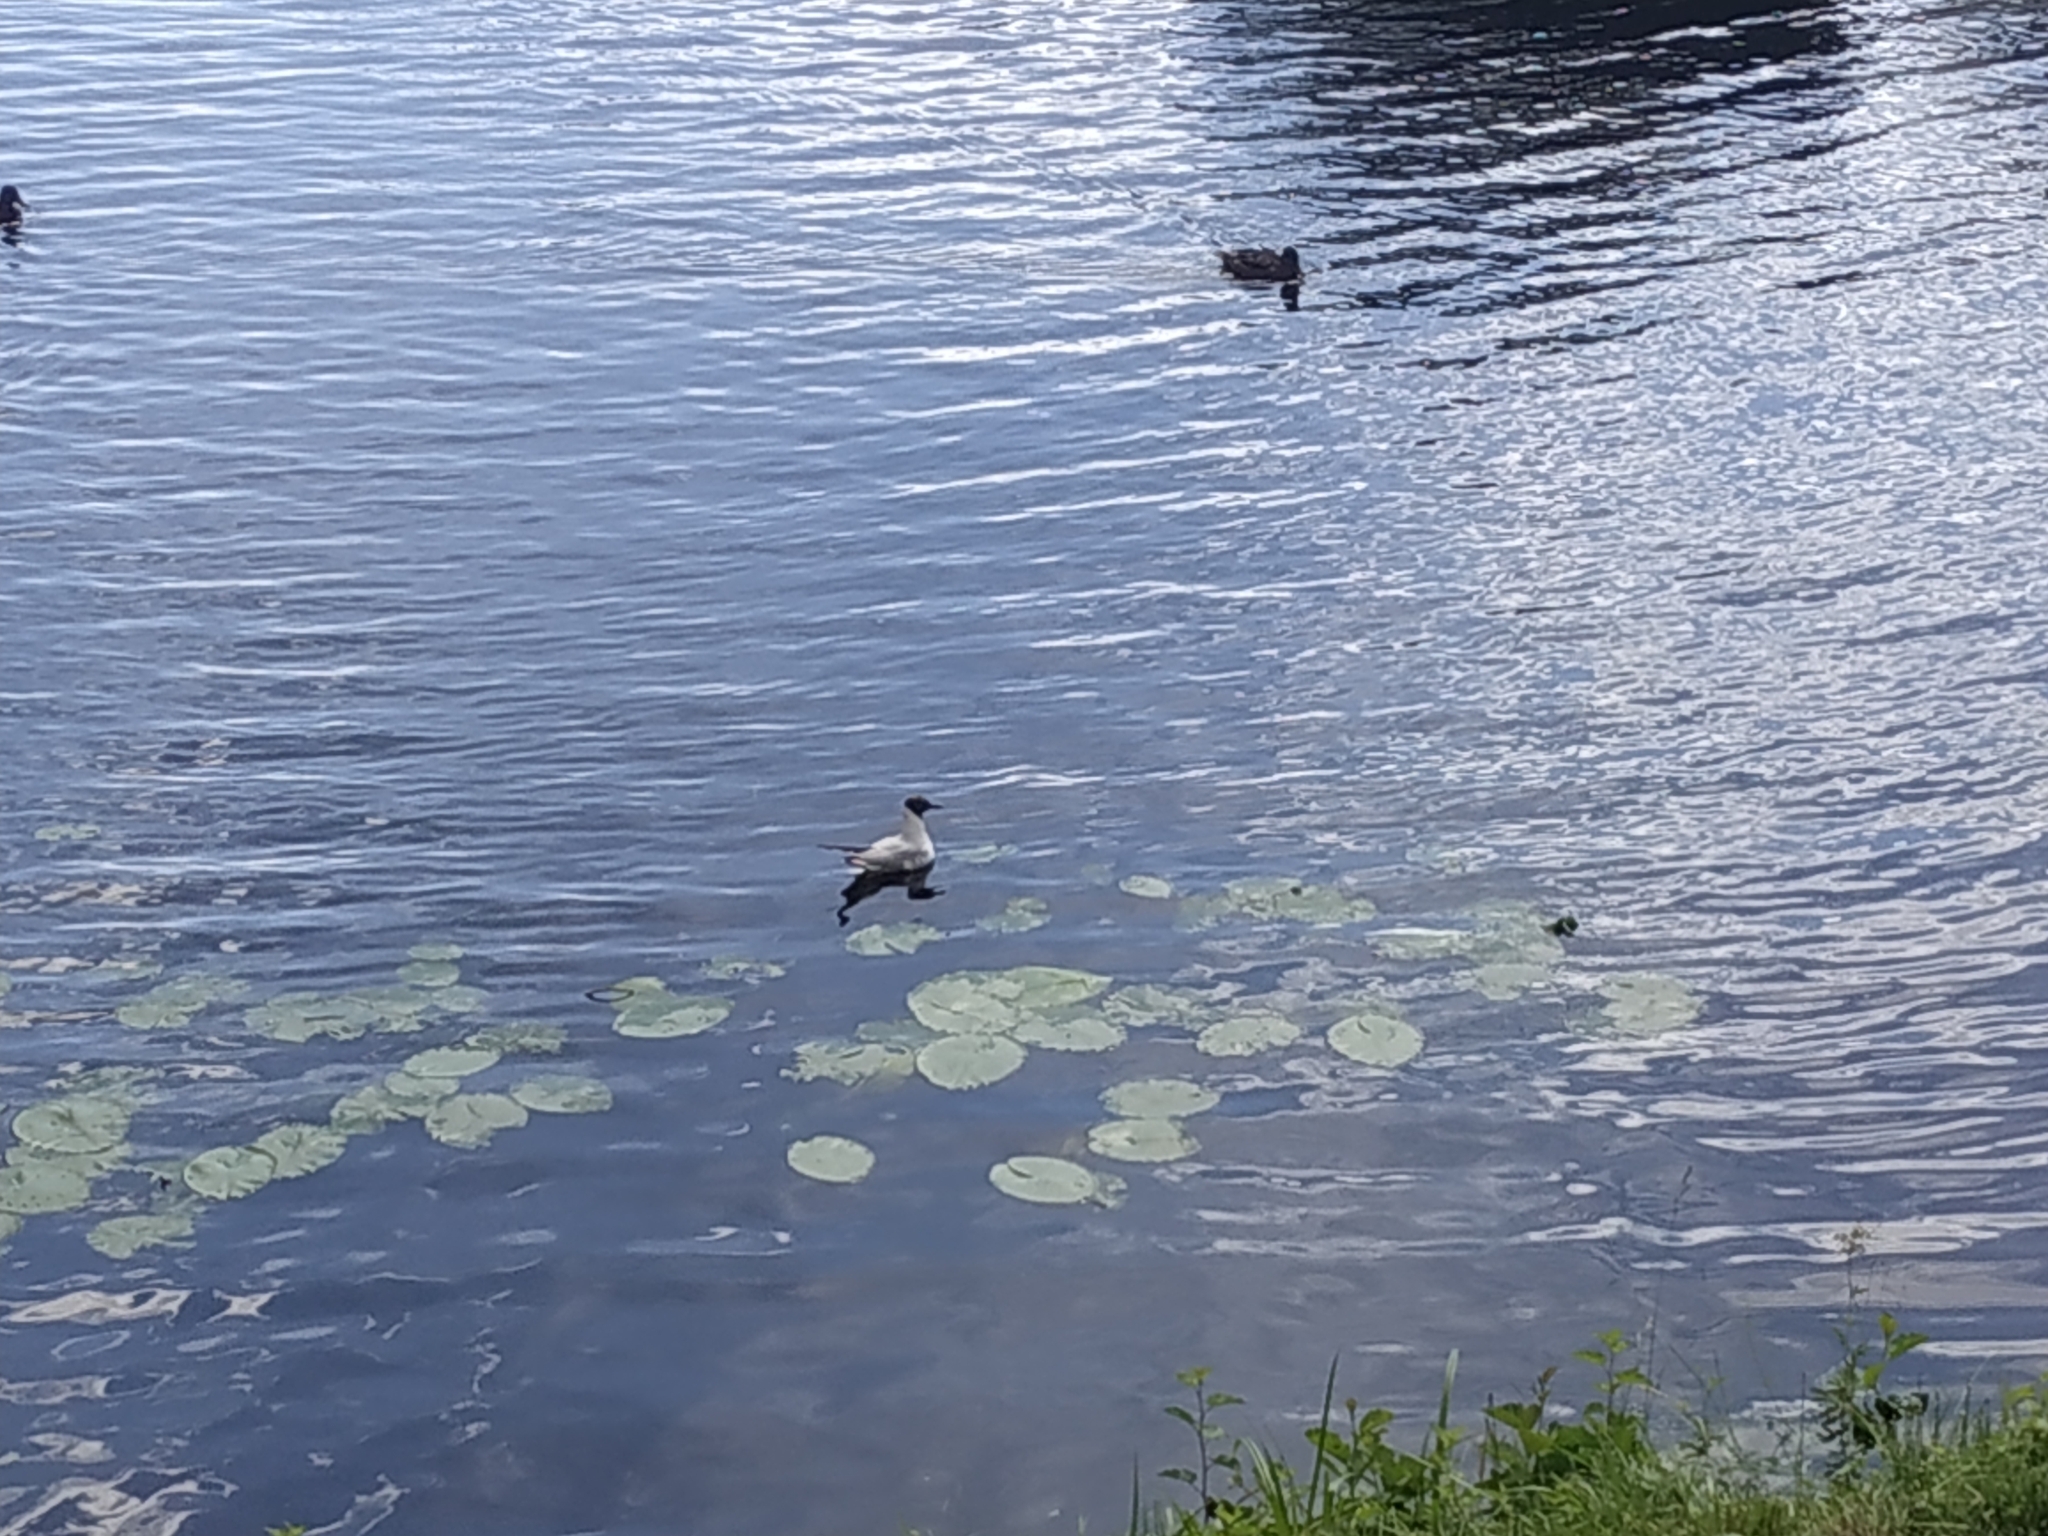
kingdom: Animalia
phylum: Chordata
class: Aves
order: Charadriiformes
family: Laridae
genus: Chroicocephalus
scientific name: Chroicocephalus ridibundus
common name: Black-headed gull
